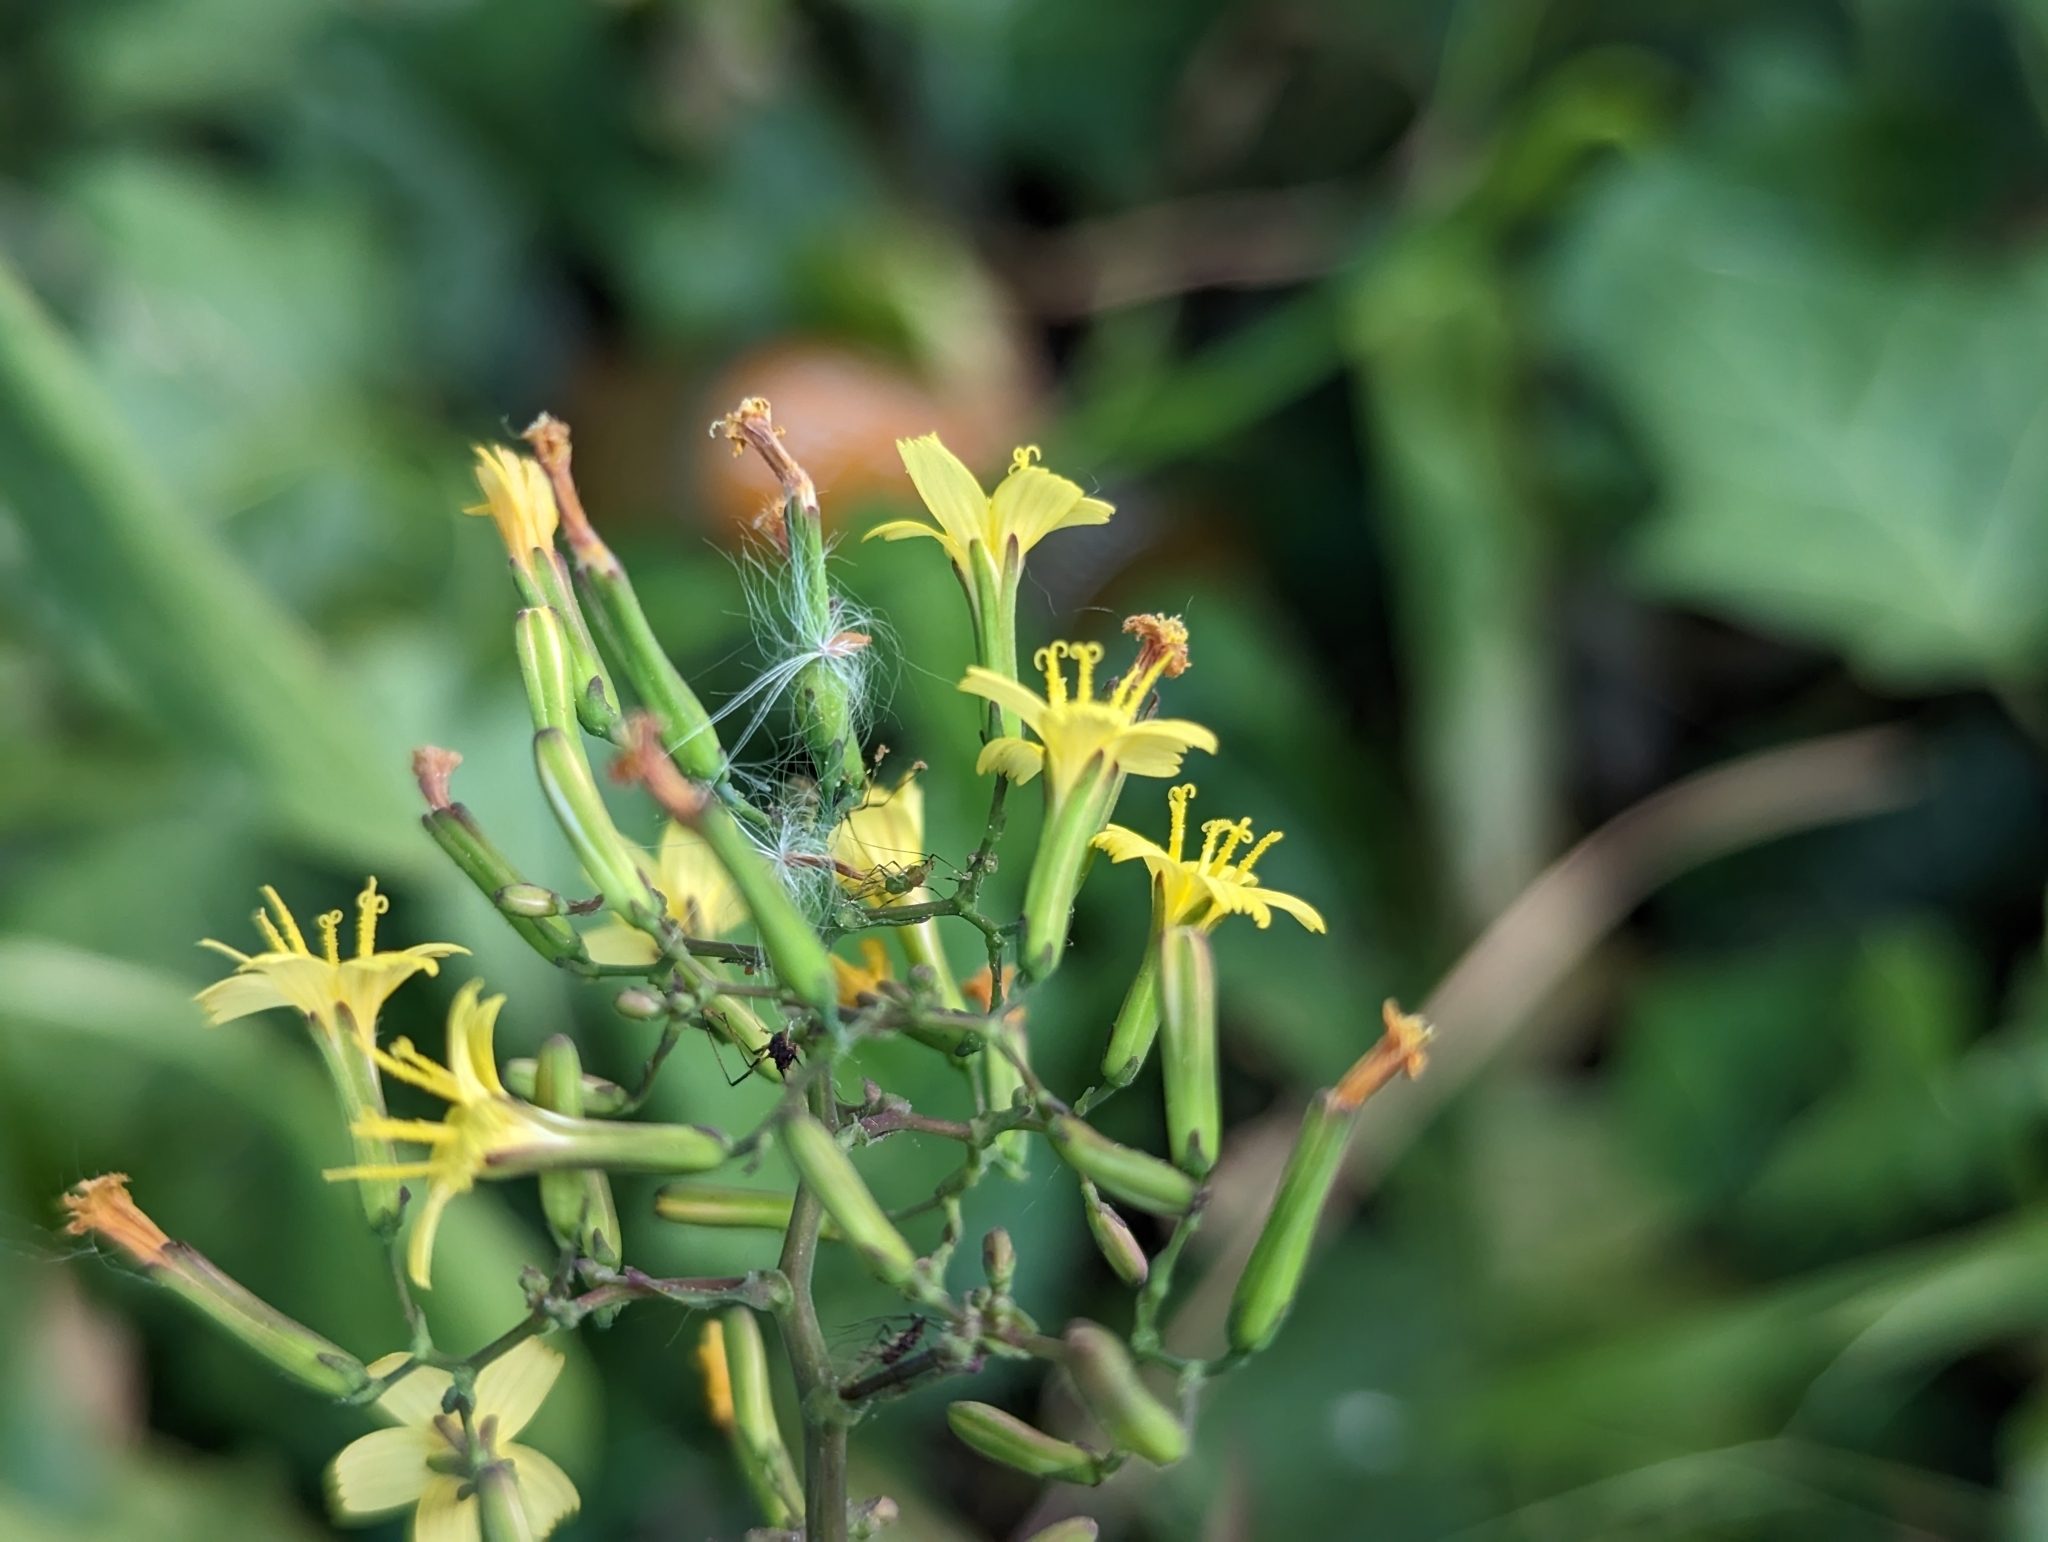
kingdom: Plantae
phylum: Tracheophyta
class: Magnoliopsida
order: Asterales
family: Asteraceae
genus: Mycelis
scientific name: Mycelis muralis
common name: Wall lettuce
